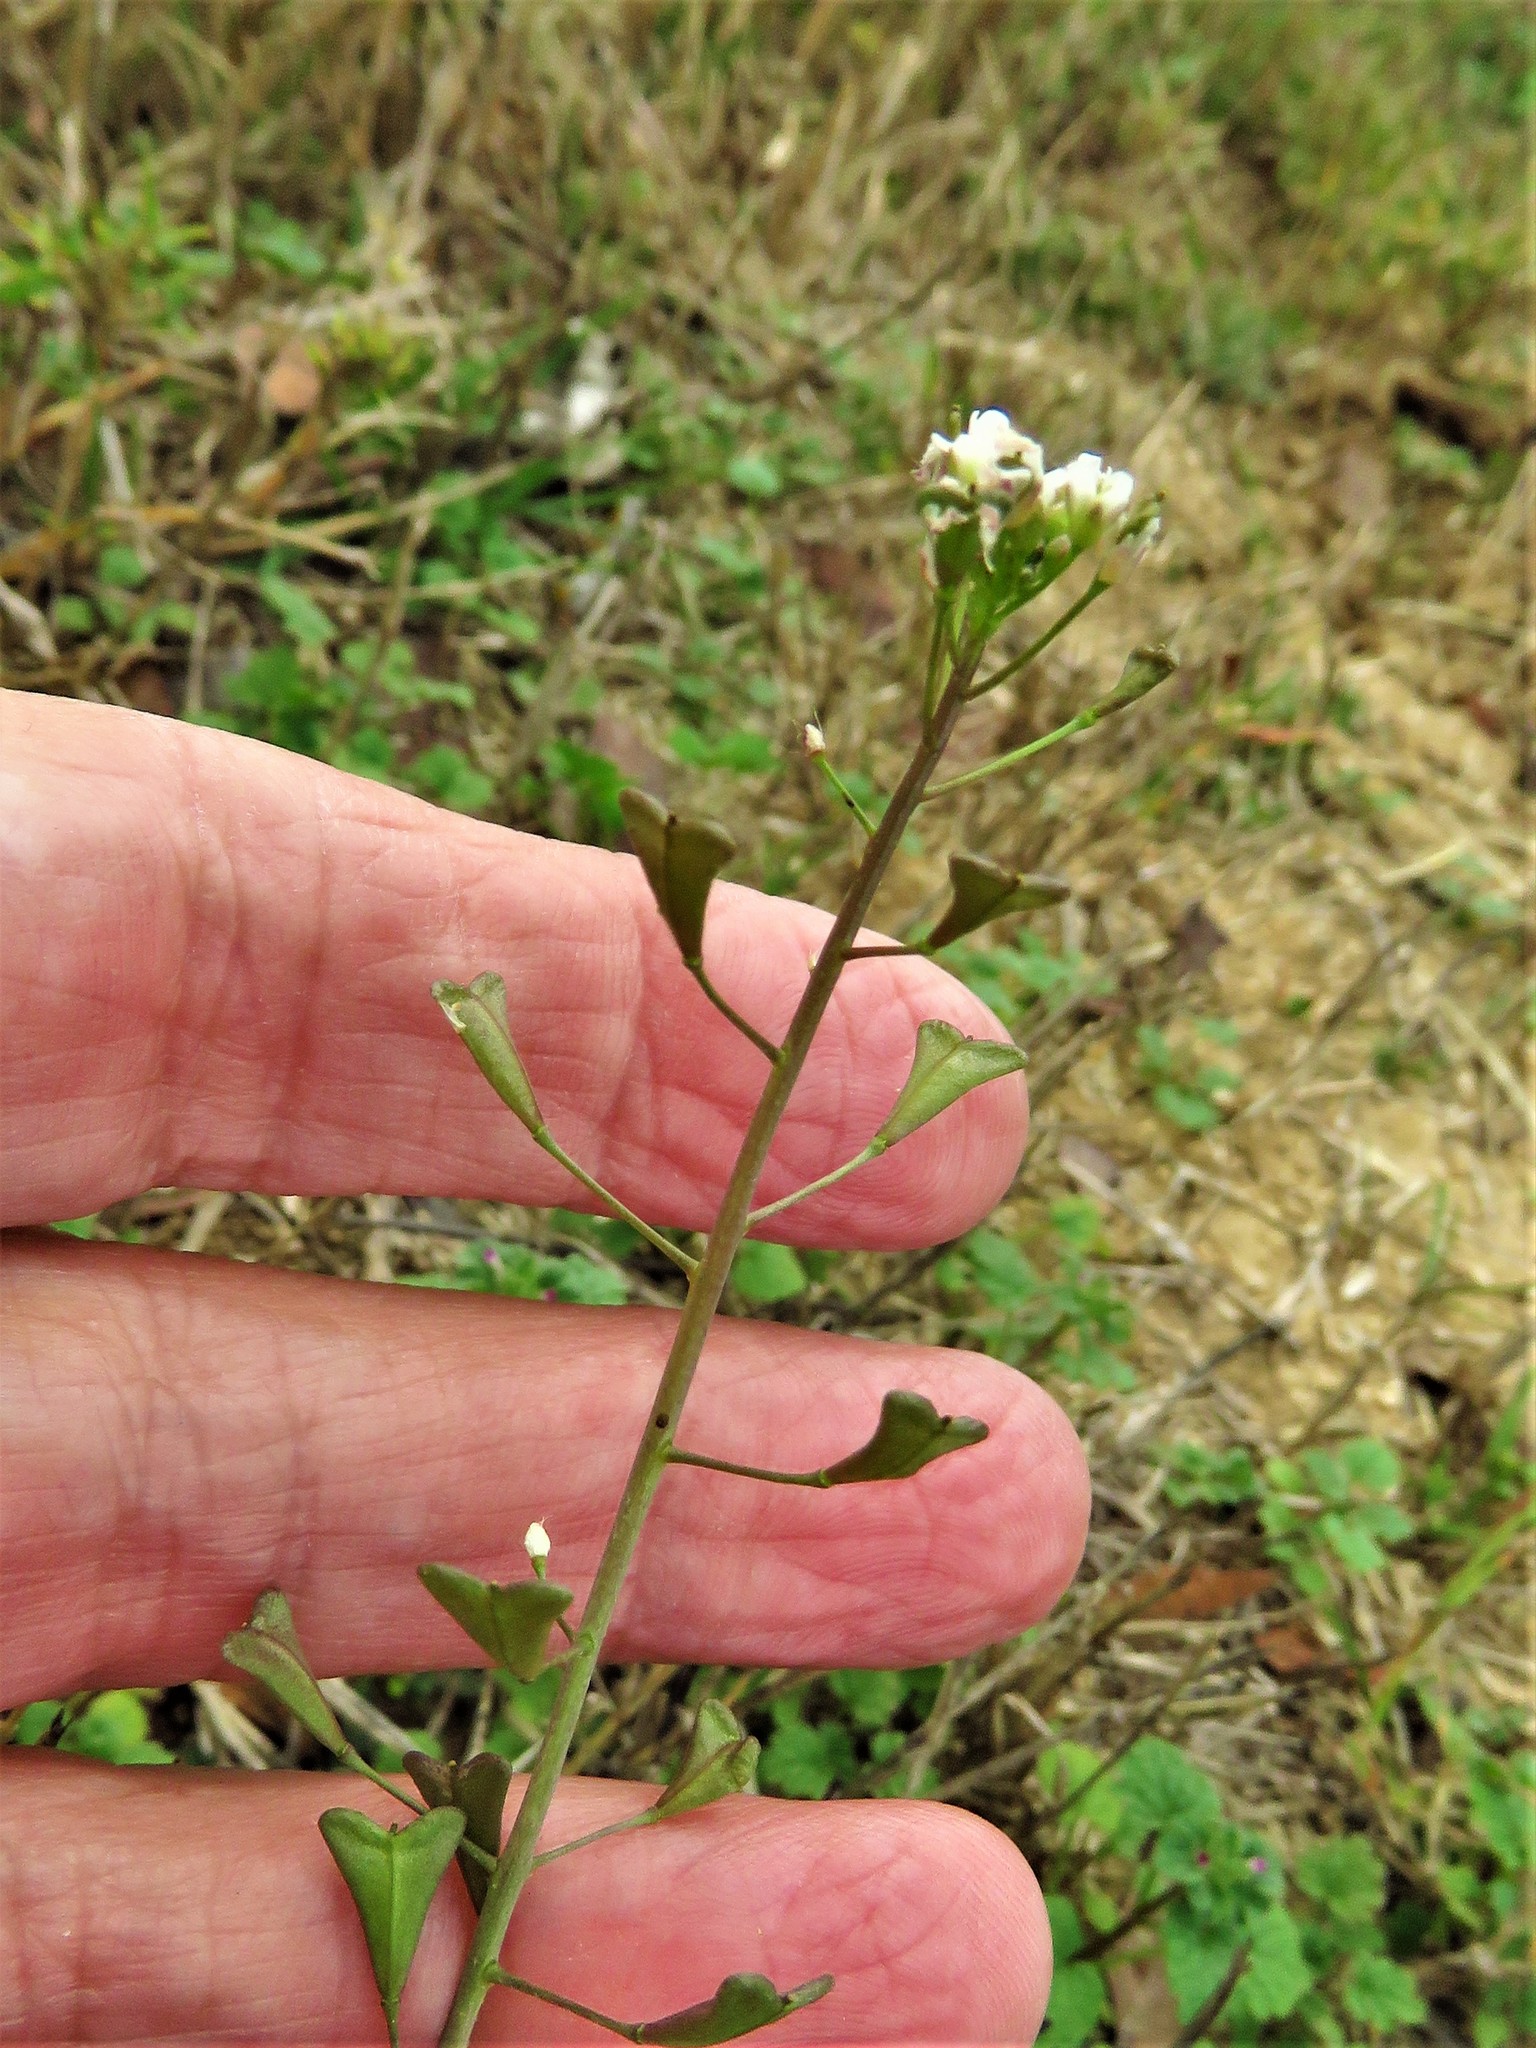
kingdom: Plantae
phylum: Tracheophyta
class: Magnoliopsida
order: Brassicales
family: Brassicaceae
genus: Capsella
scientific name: Capsella bursa-pastoris
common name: Shepherd's purse
